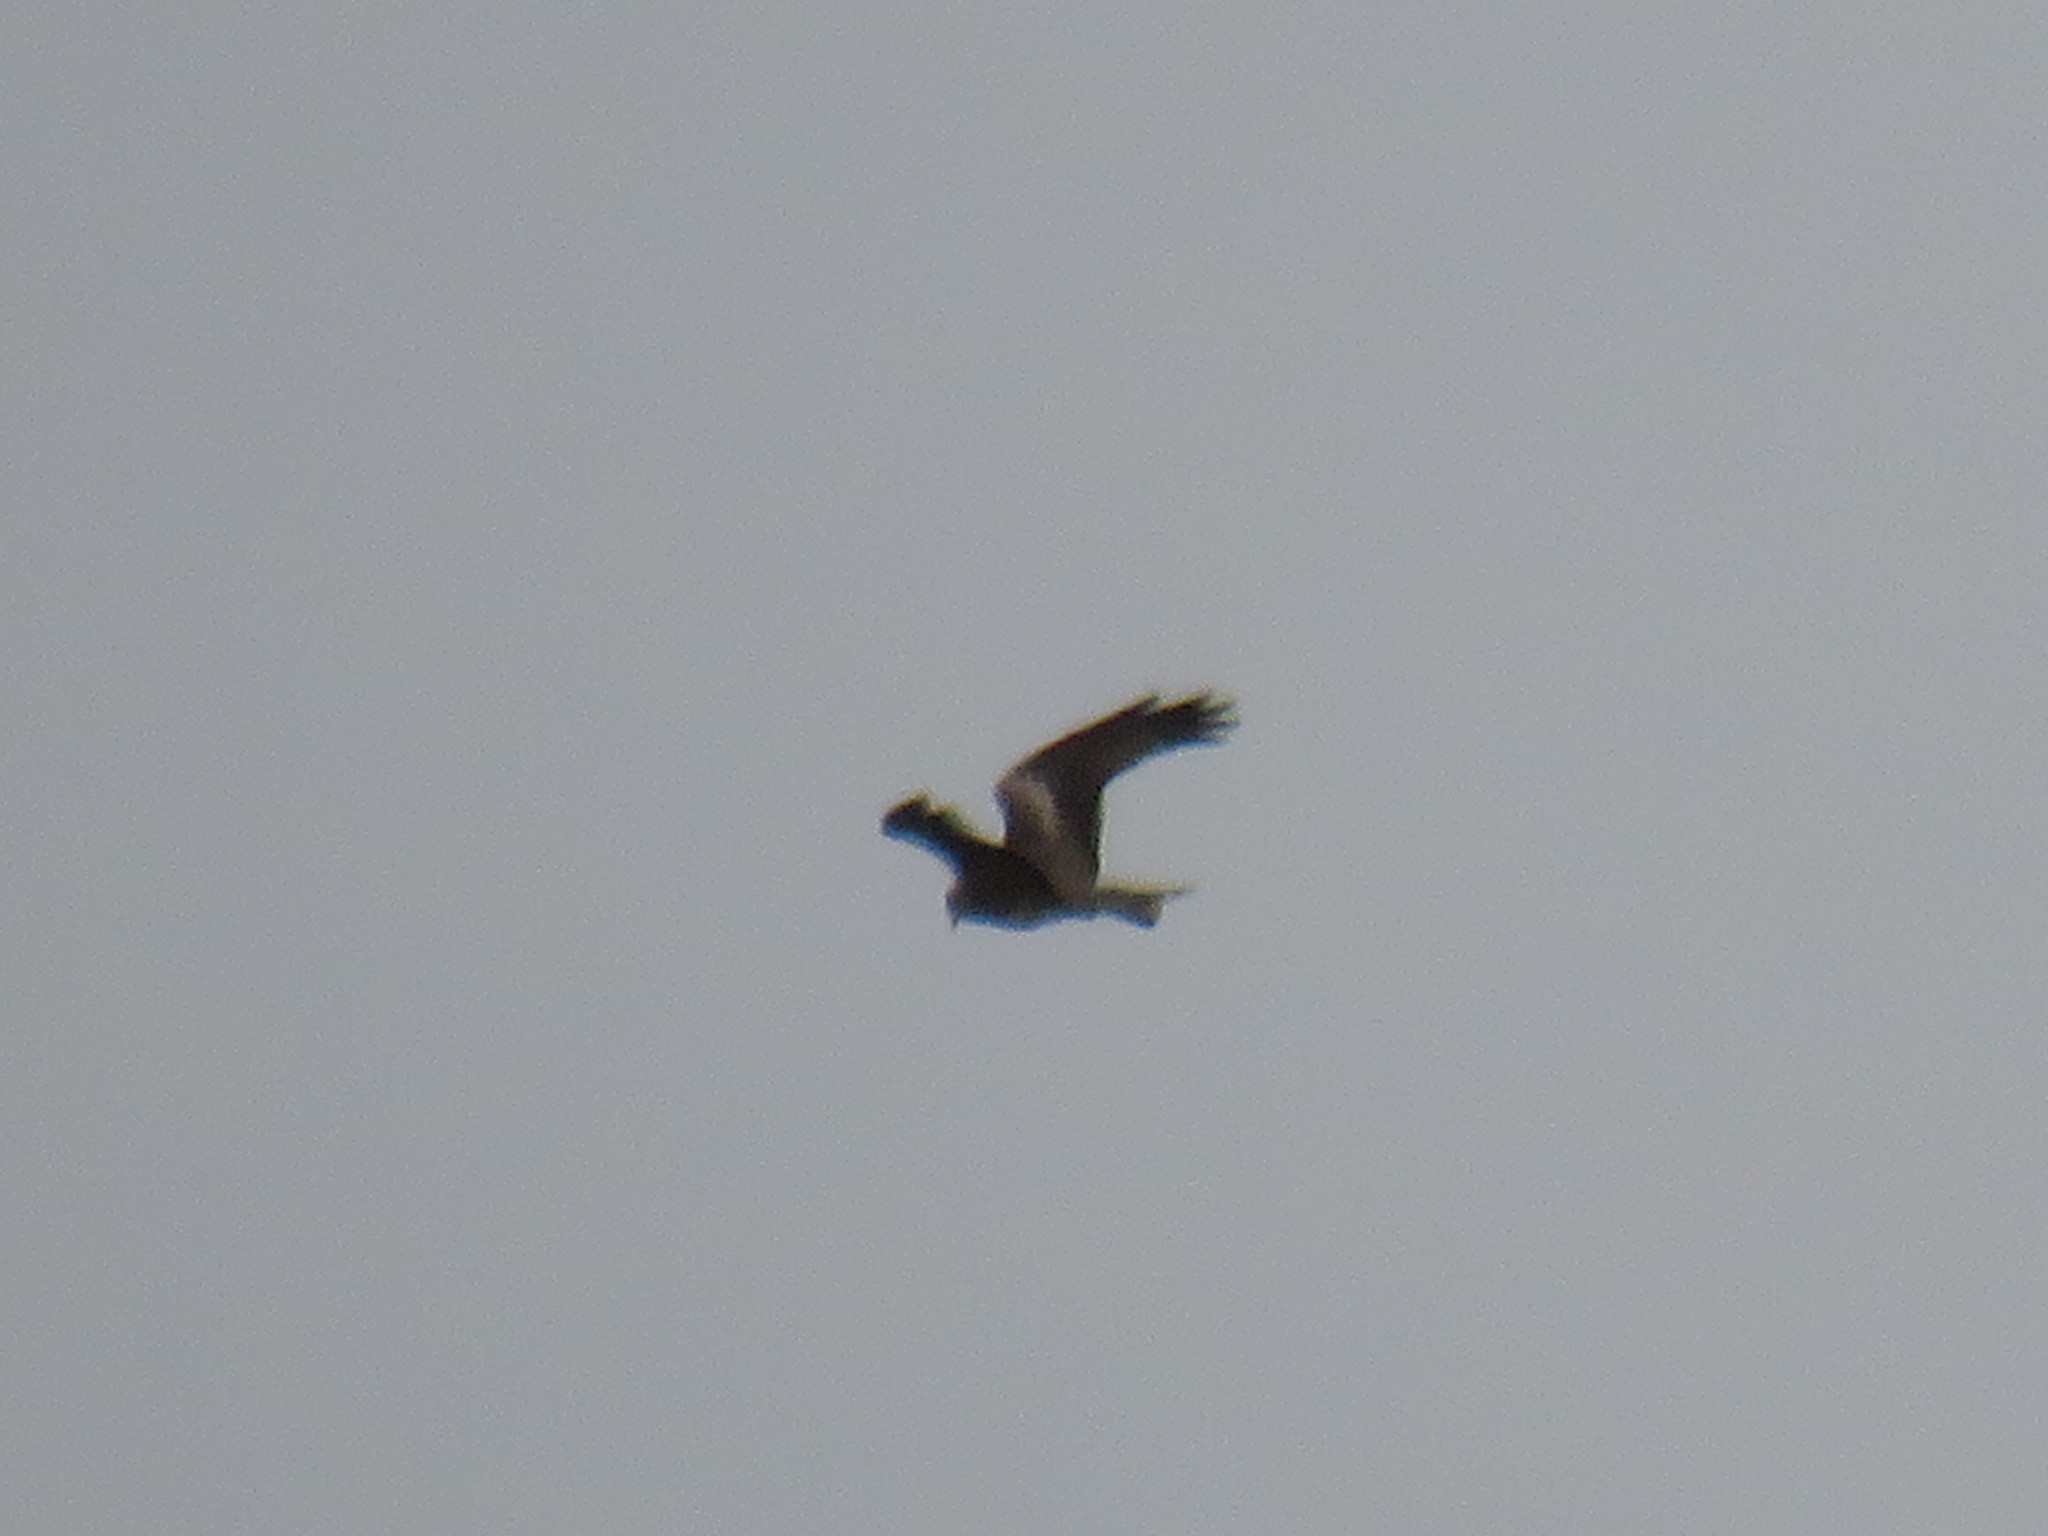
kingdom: Animalia
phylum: Chordata
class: Aves
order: Accipitriformes
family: Accipitridae
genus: Milvus
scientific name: Milvus migrans
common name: Black kite
